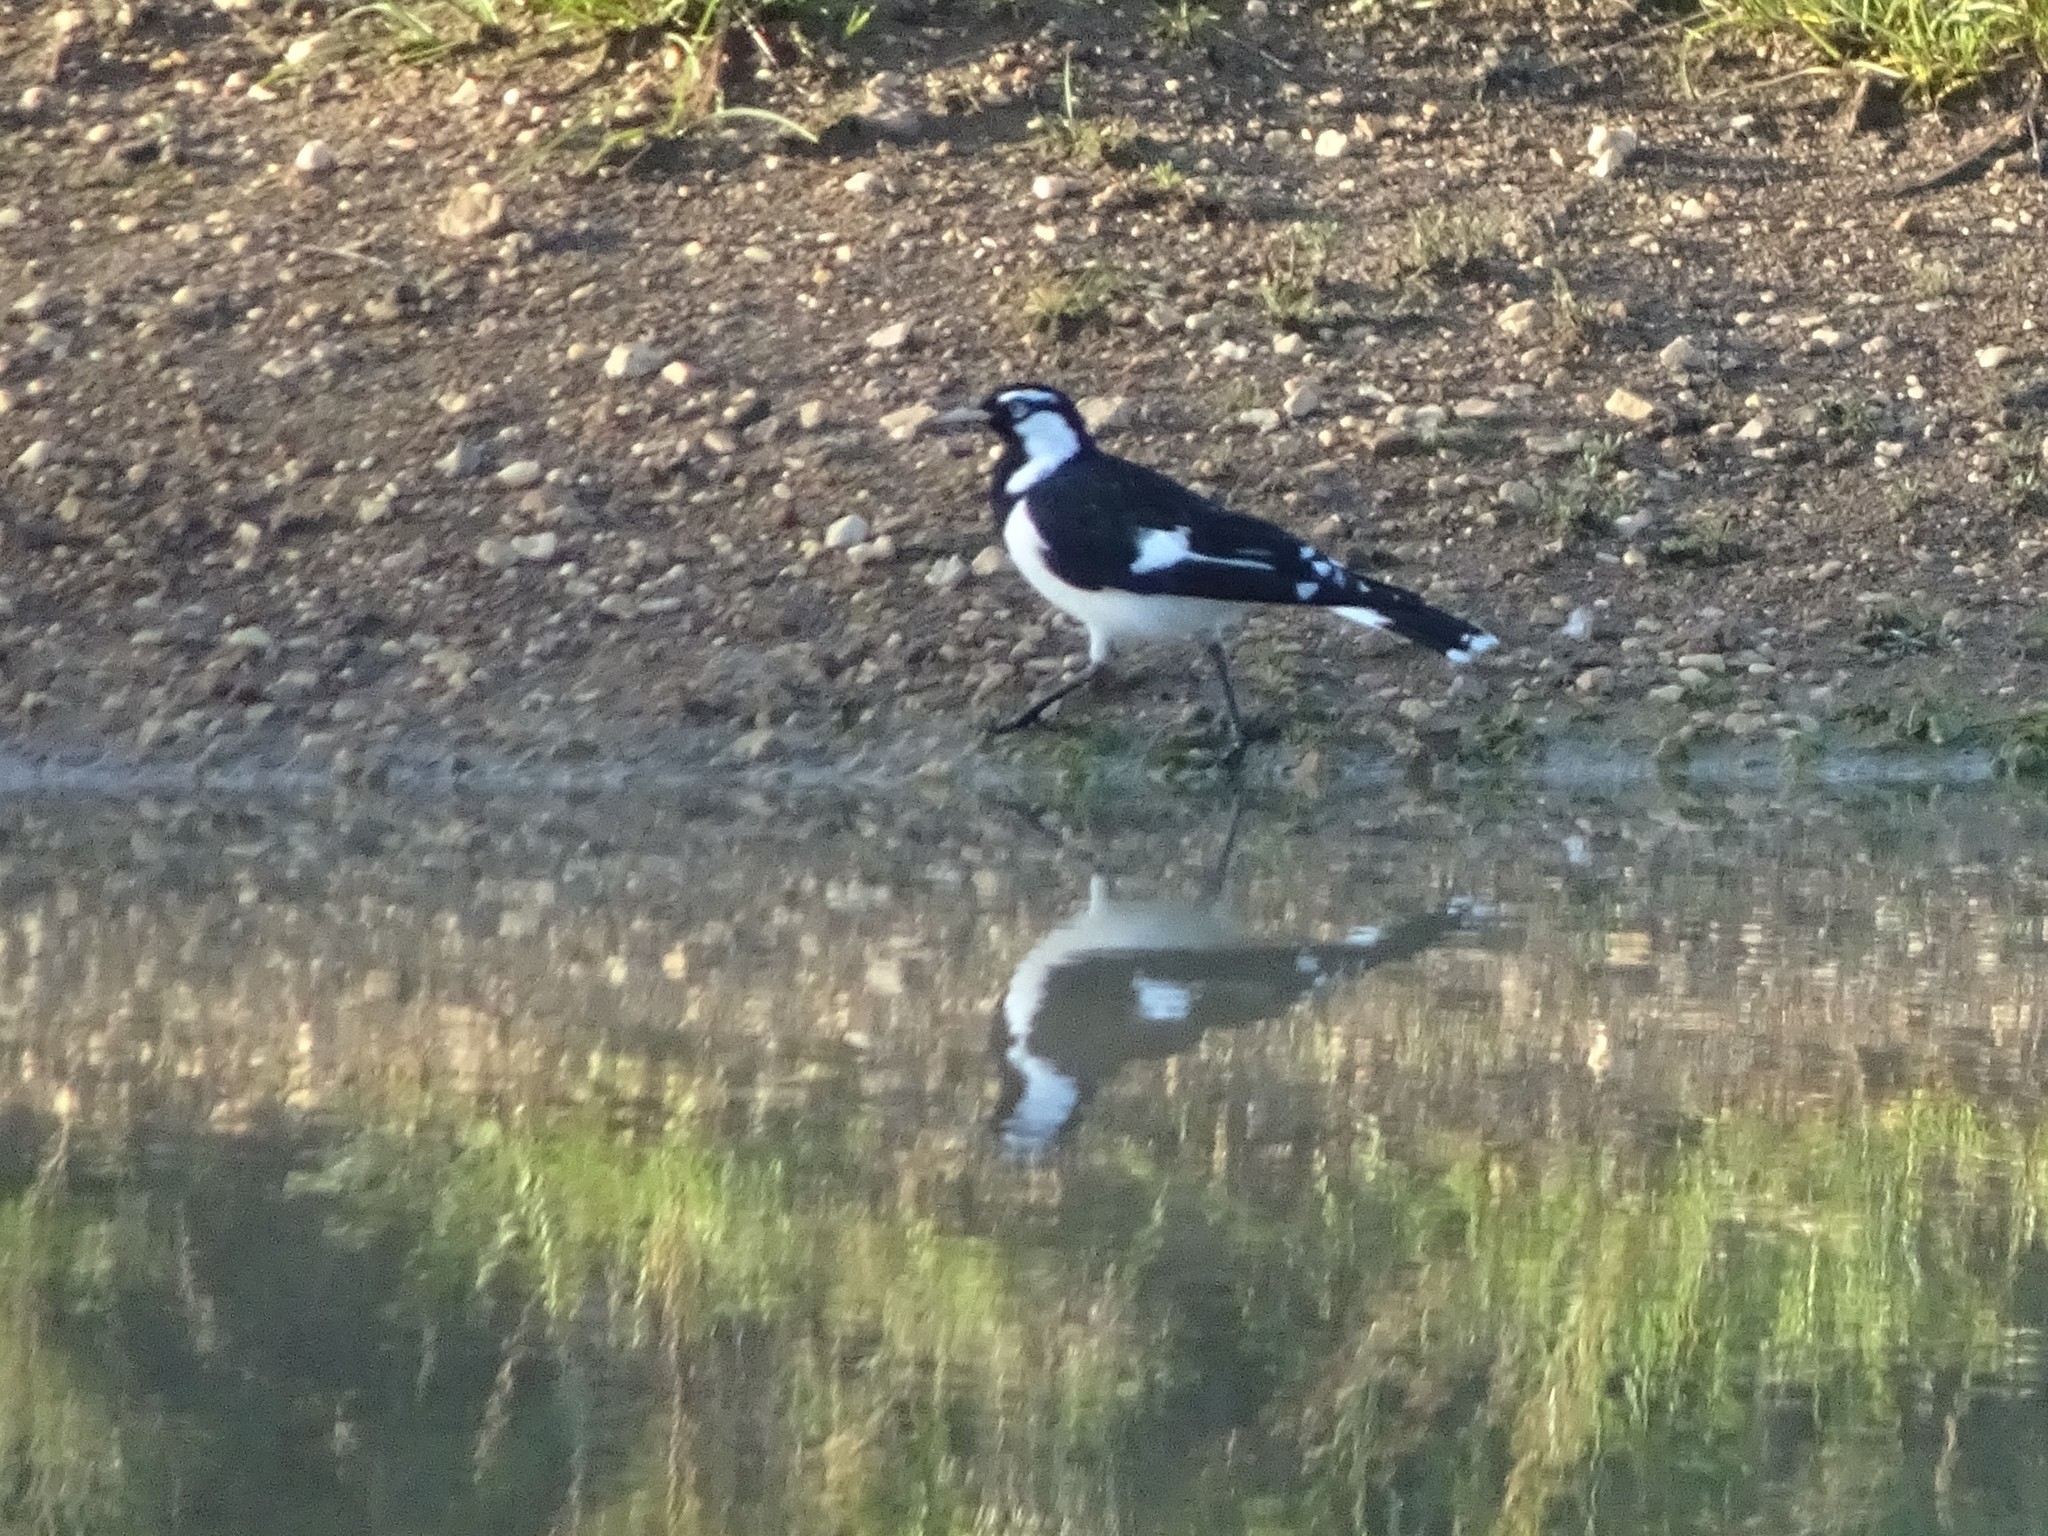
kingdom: Animalia
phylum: Chordata
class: Aves
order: Passeriformes
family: Monarchidae
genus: Grallina
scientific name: Grallina cyanoleuca
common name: Magpie-lark
